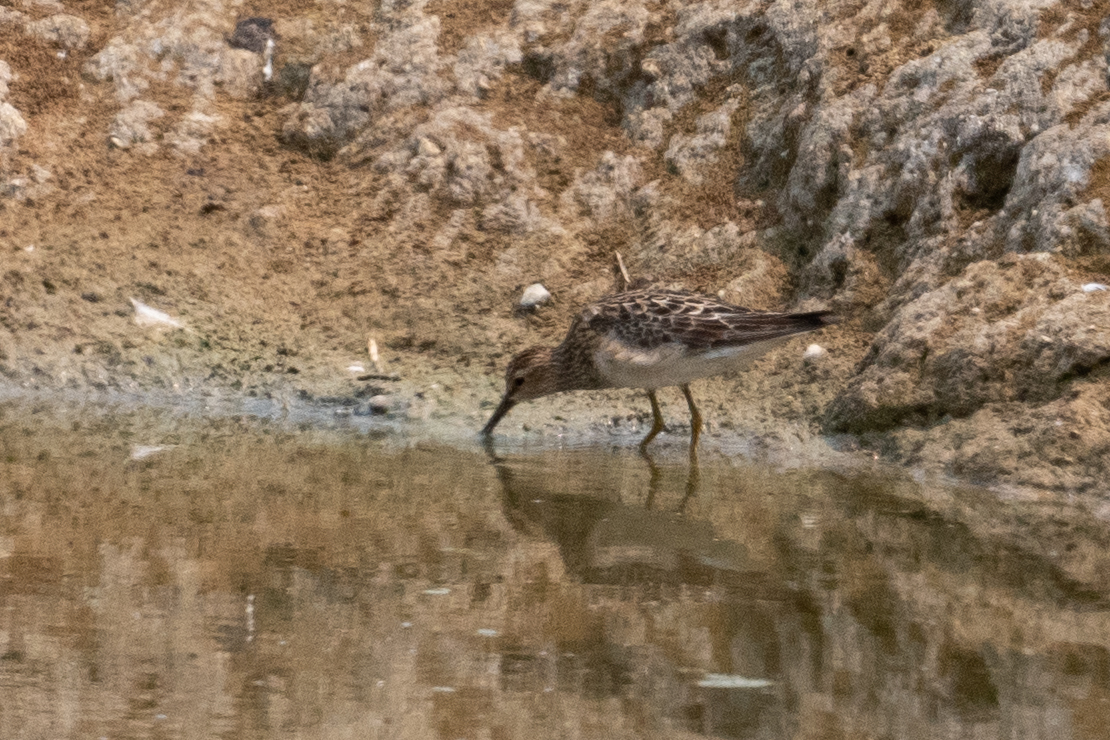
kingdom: Animalia
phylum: Chordata
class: Aves
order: Charadriiformes
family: Scolopacidae
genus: Calidris
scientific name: Calidris melanotos
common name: Pectoral sandpiper
